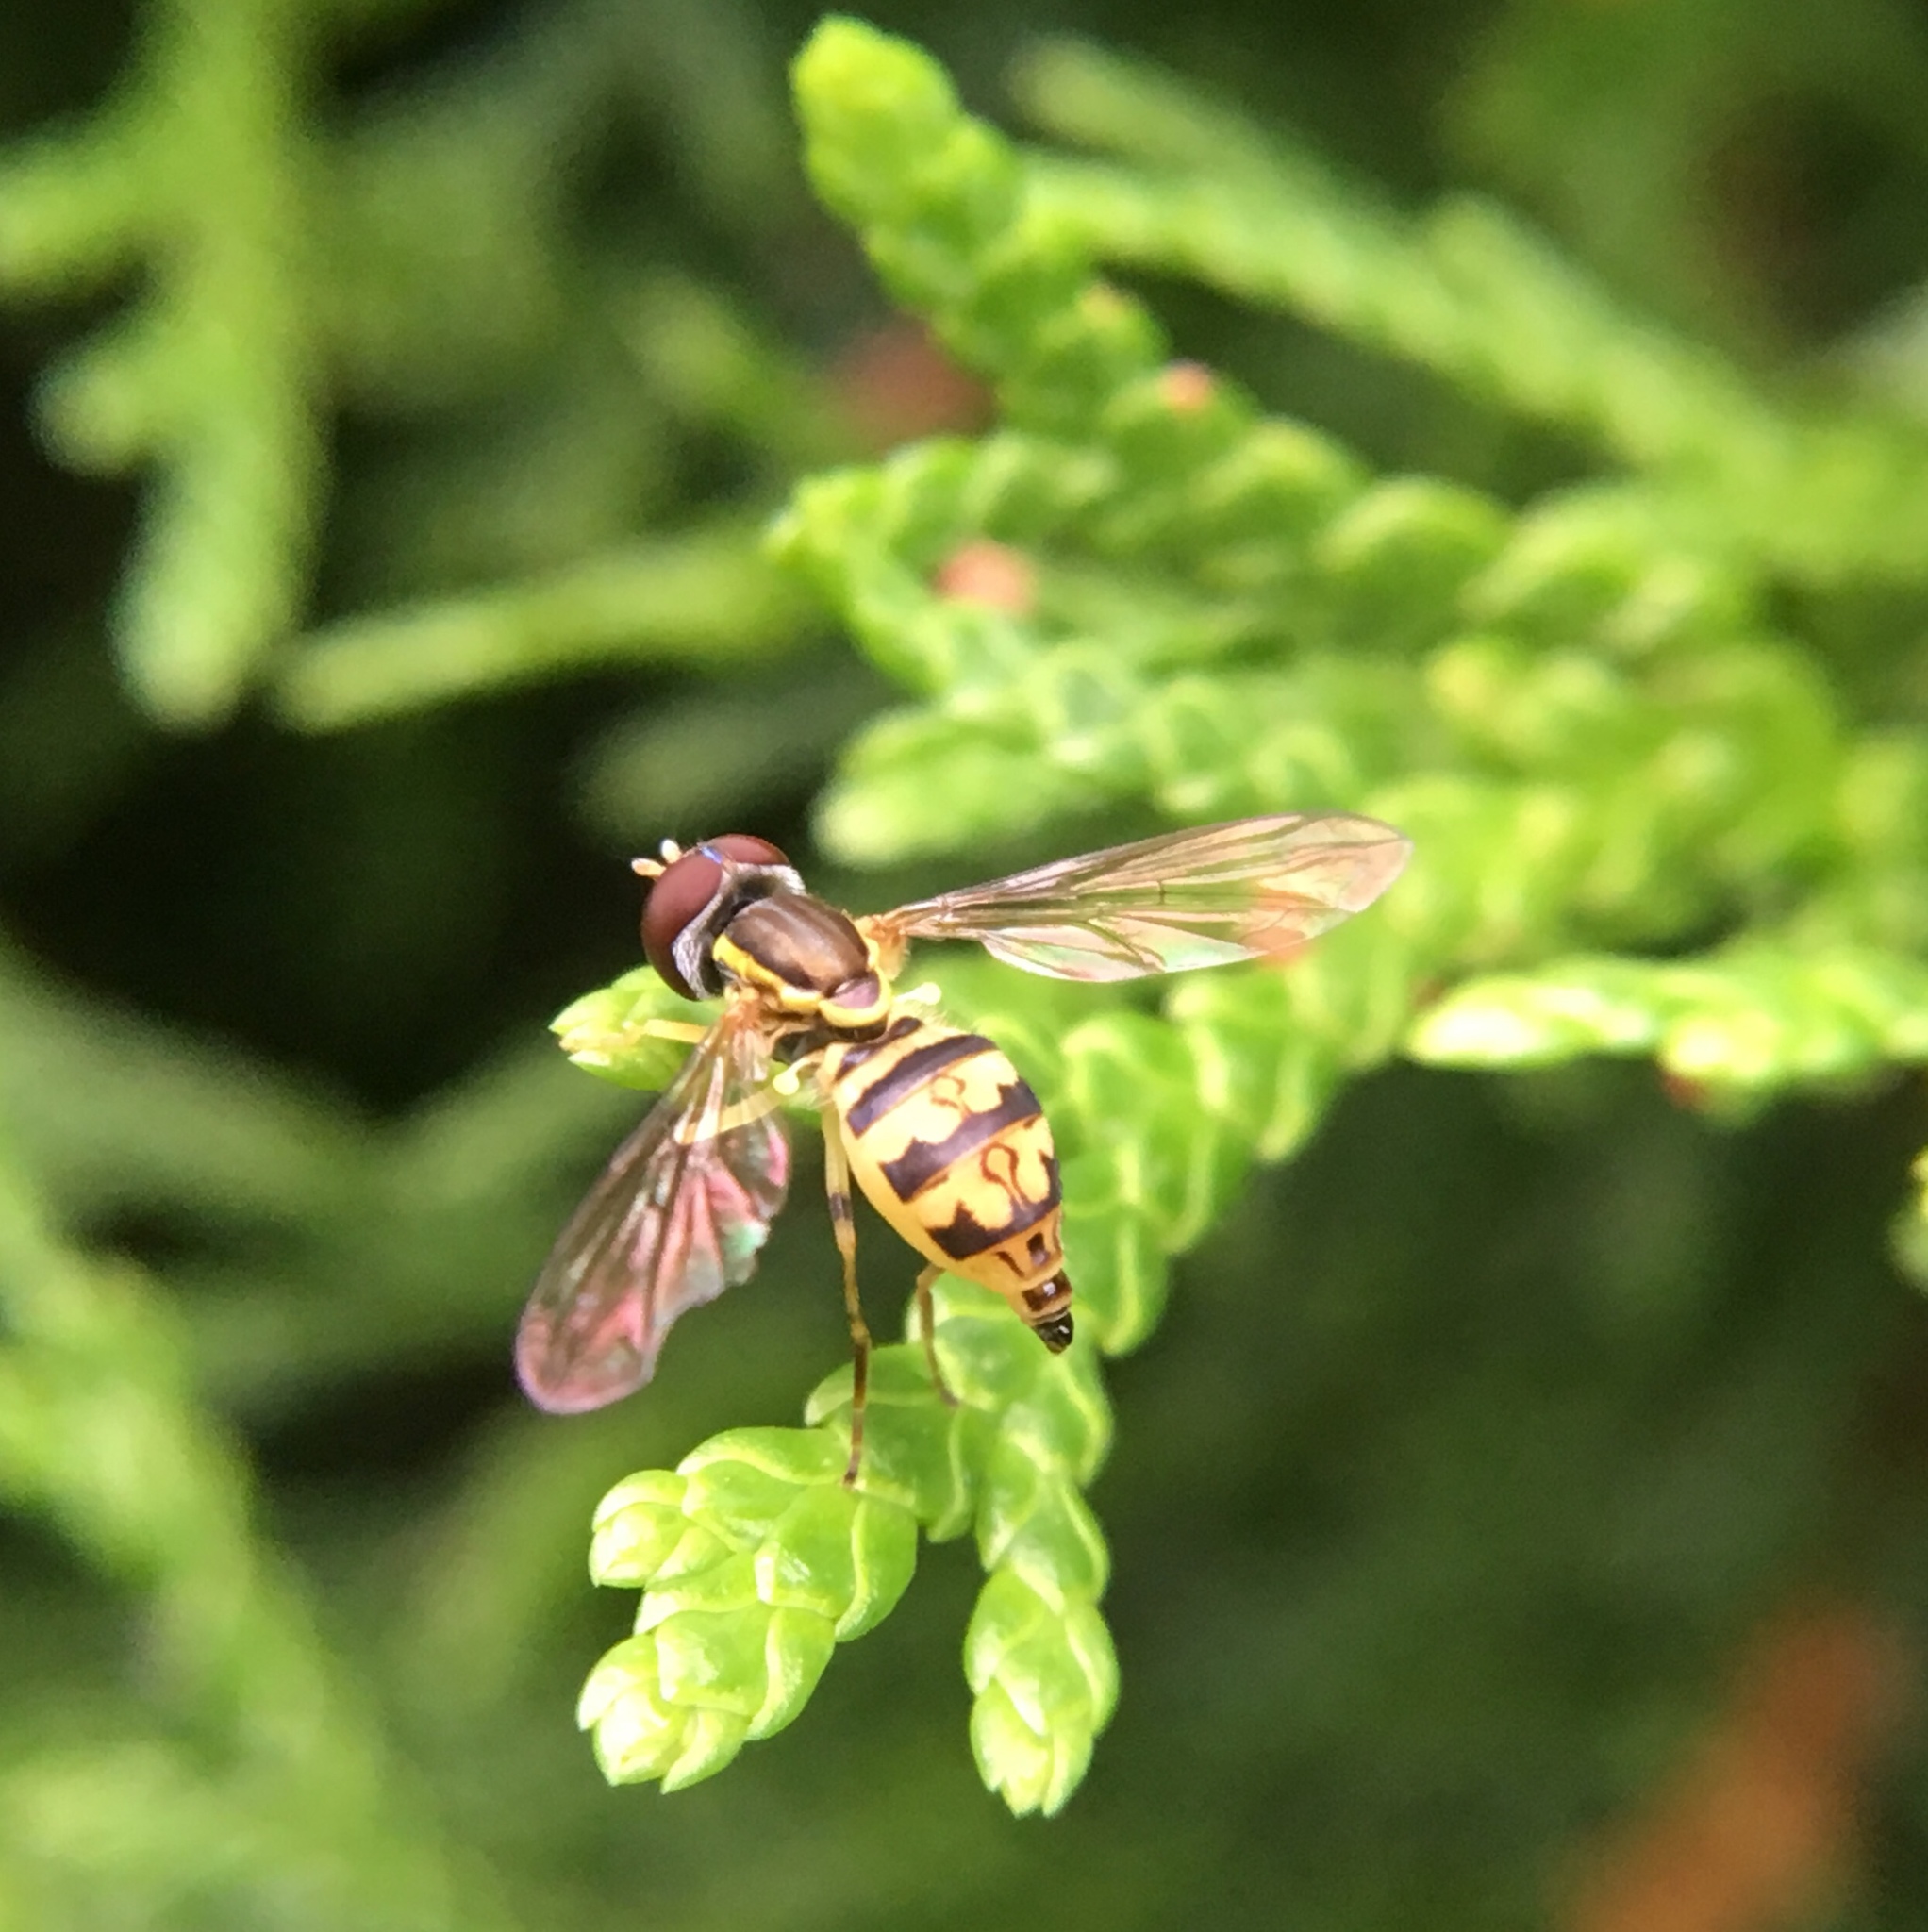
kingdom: Animalia
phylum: Arthropoda
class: Insecta
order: Diptera
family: Syrphidae
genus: Toxomerus
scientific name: Toxomerus geminatus
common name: Eastern calligrapher
